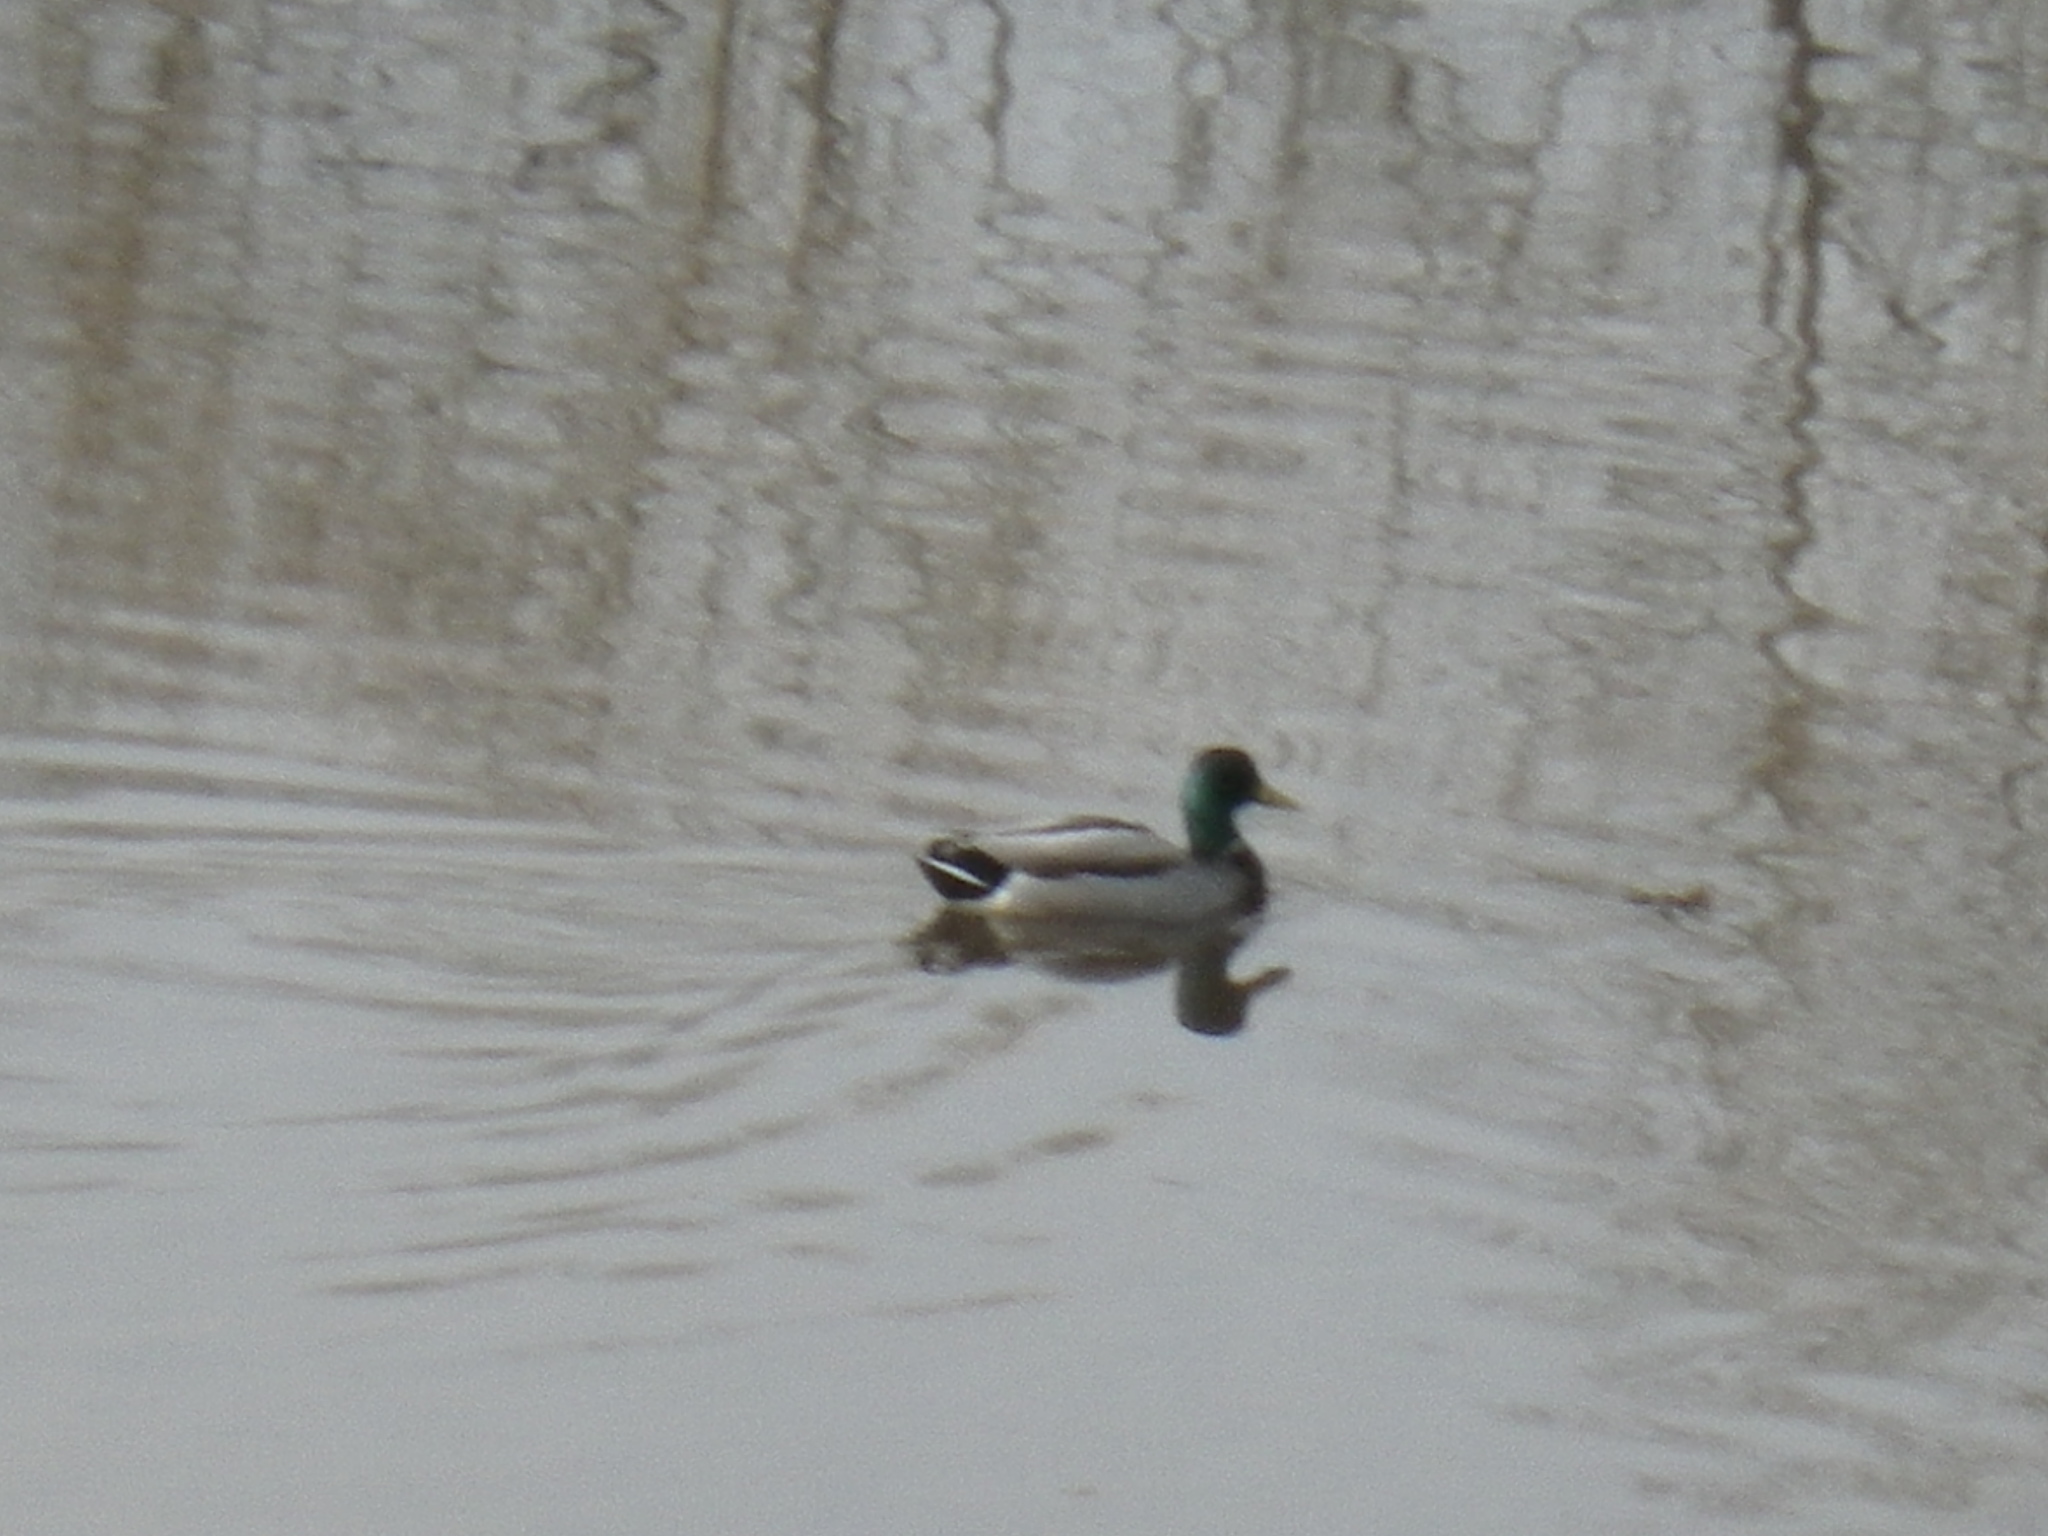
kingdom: Animalia
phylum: Chordata
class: Aves
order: Anseriformes
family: Anatidae
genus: Anas
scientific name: Anas platyrhynchos
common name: Mallard
